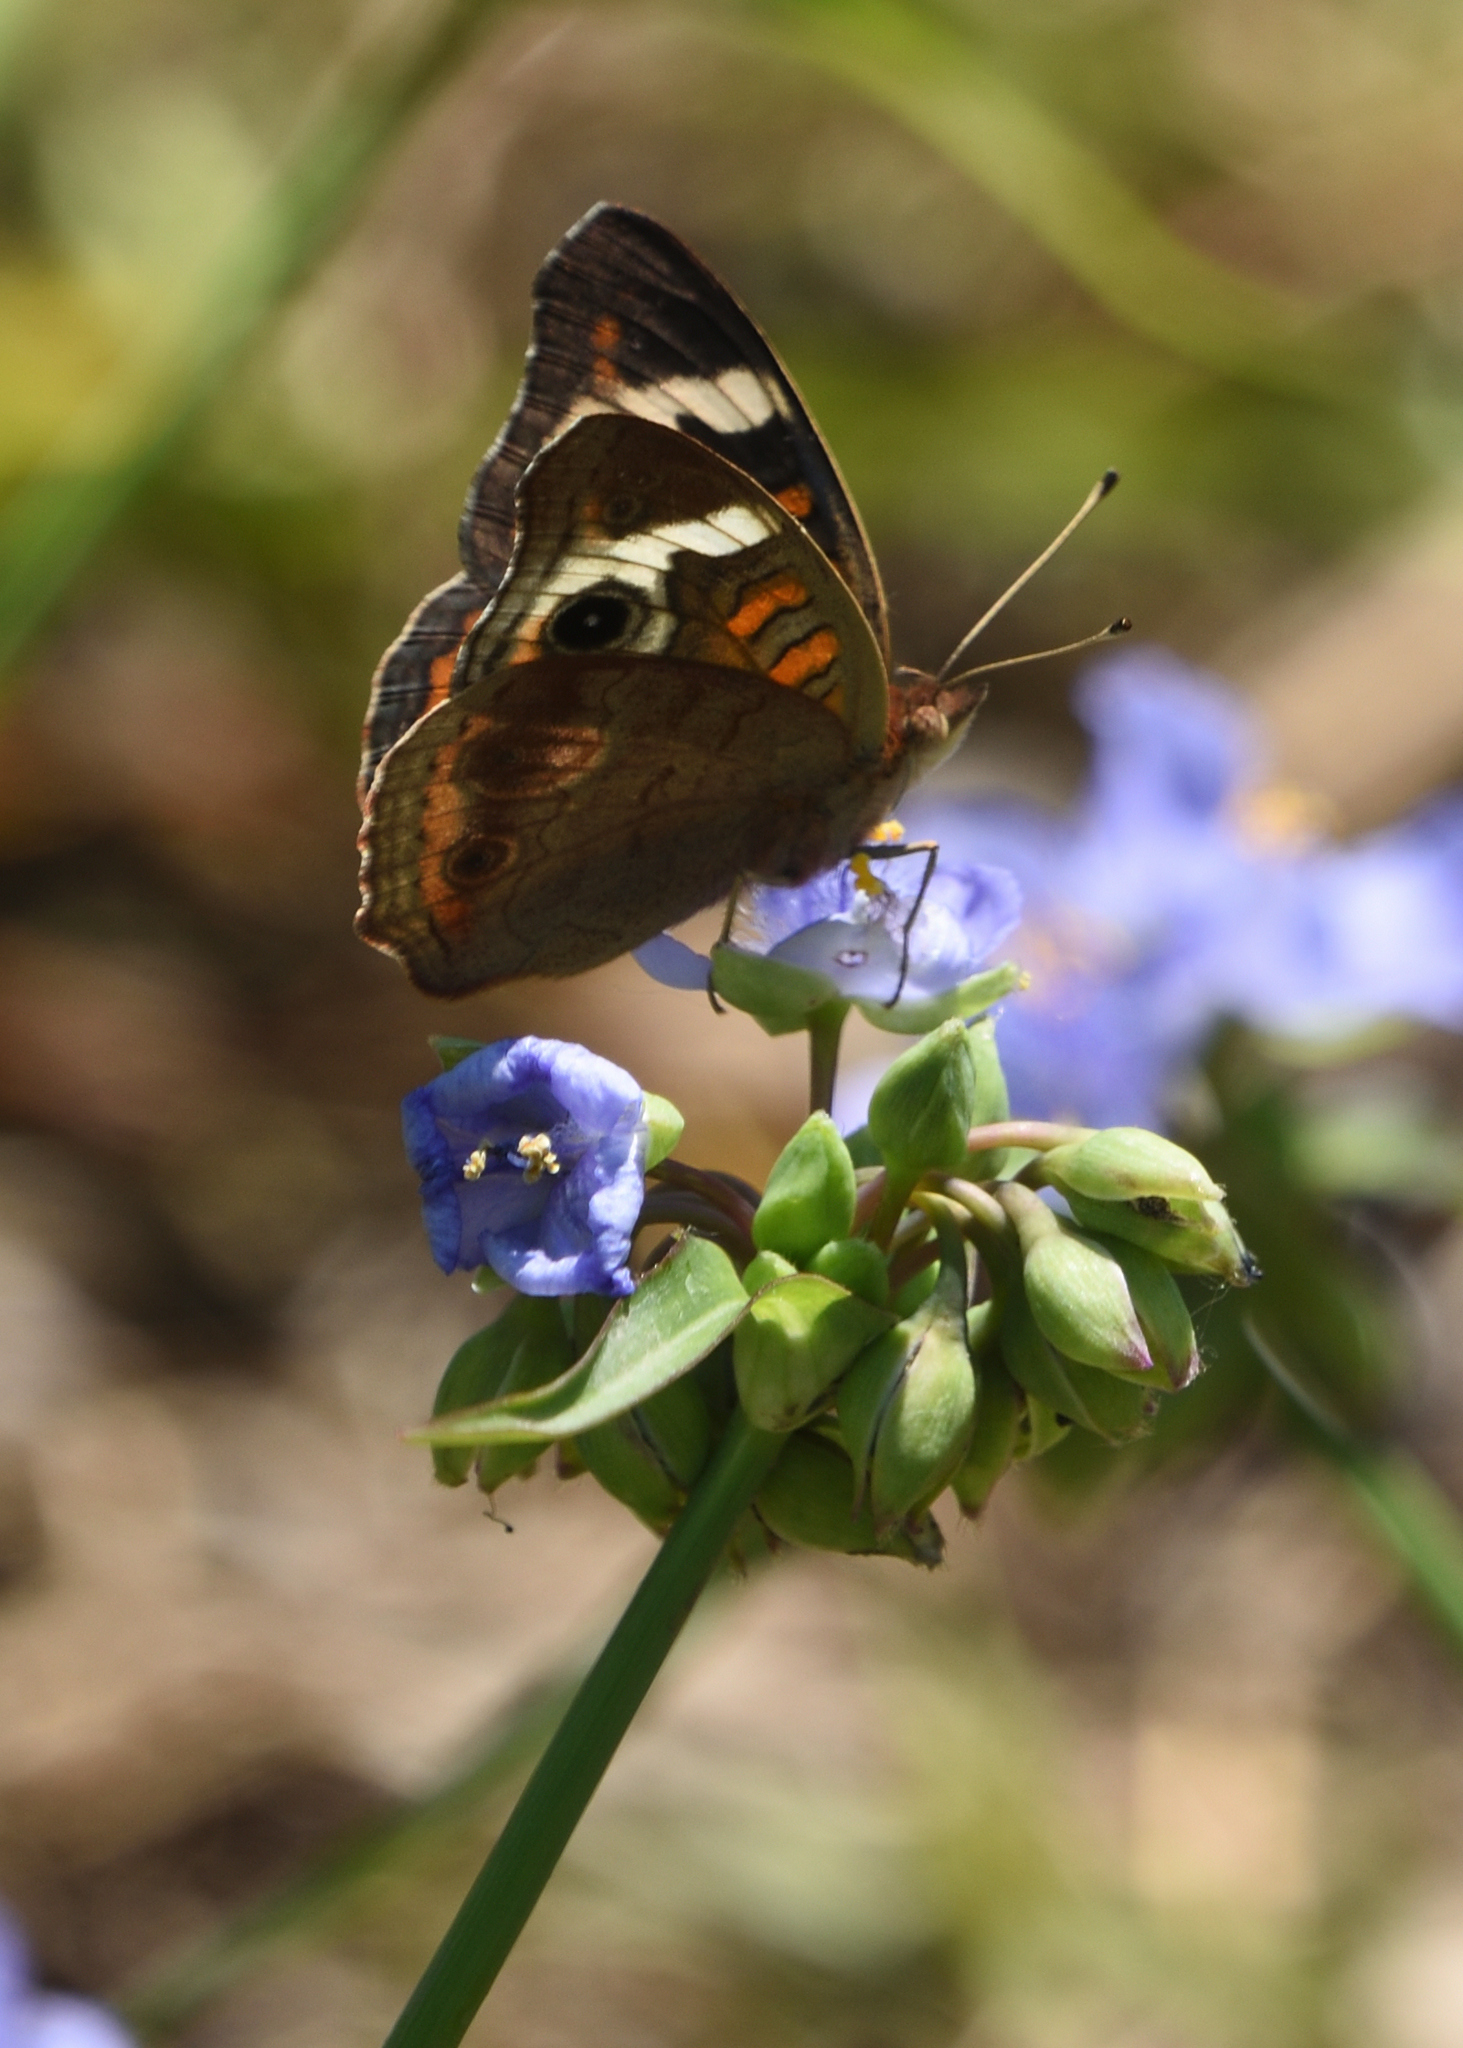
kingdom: Animalia
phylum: Arthropoda
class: Insecta
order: Lepidoptera
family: Nymphalidae
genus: Junonia
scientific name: Junonia coenia
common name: Common buckeye
